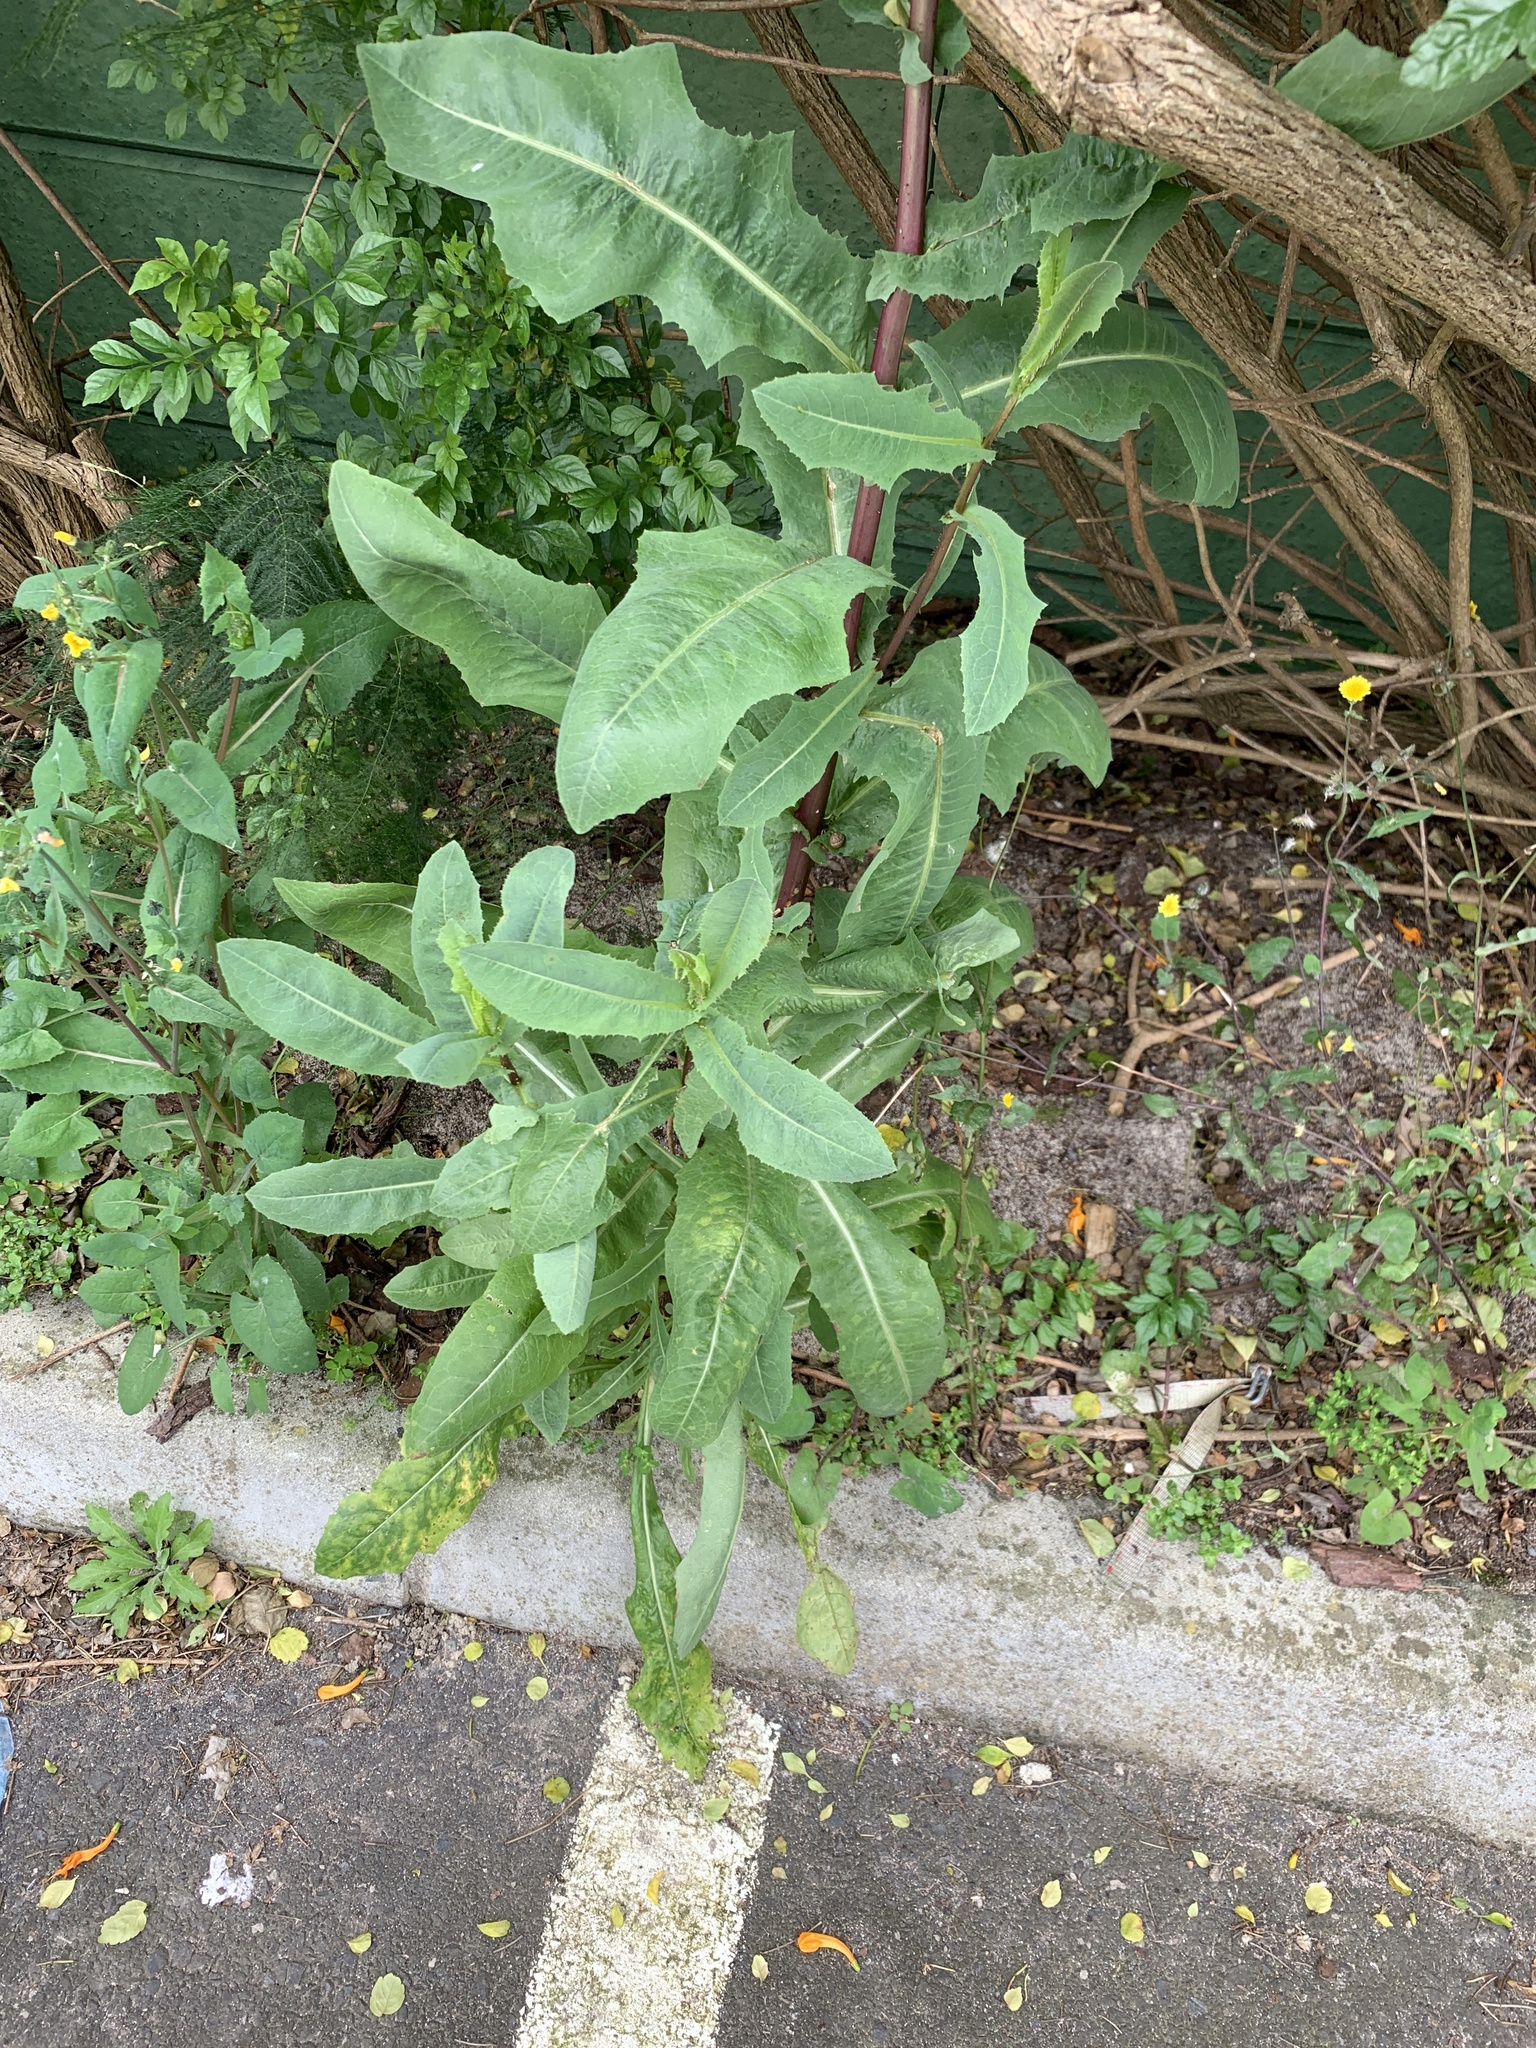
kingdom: Plantae
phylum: Tracheophyta
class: Magnoliopsida
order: Asterales
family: Asteraceae
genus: Lactuca
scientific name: Lactuca serriola
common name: Prickly lettuce
